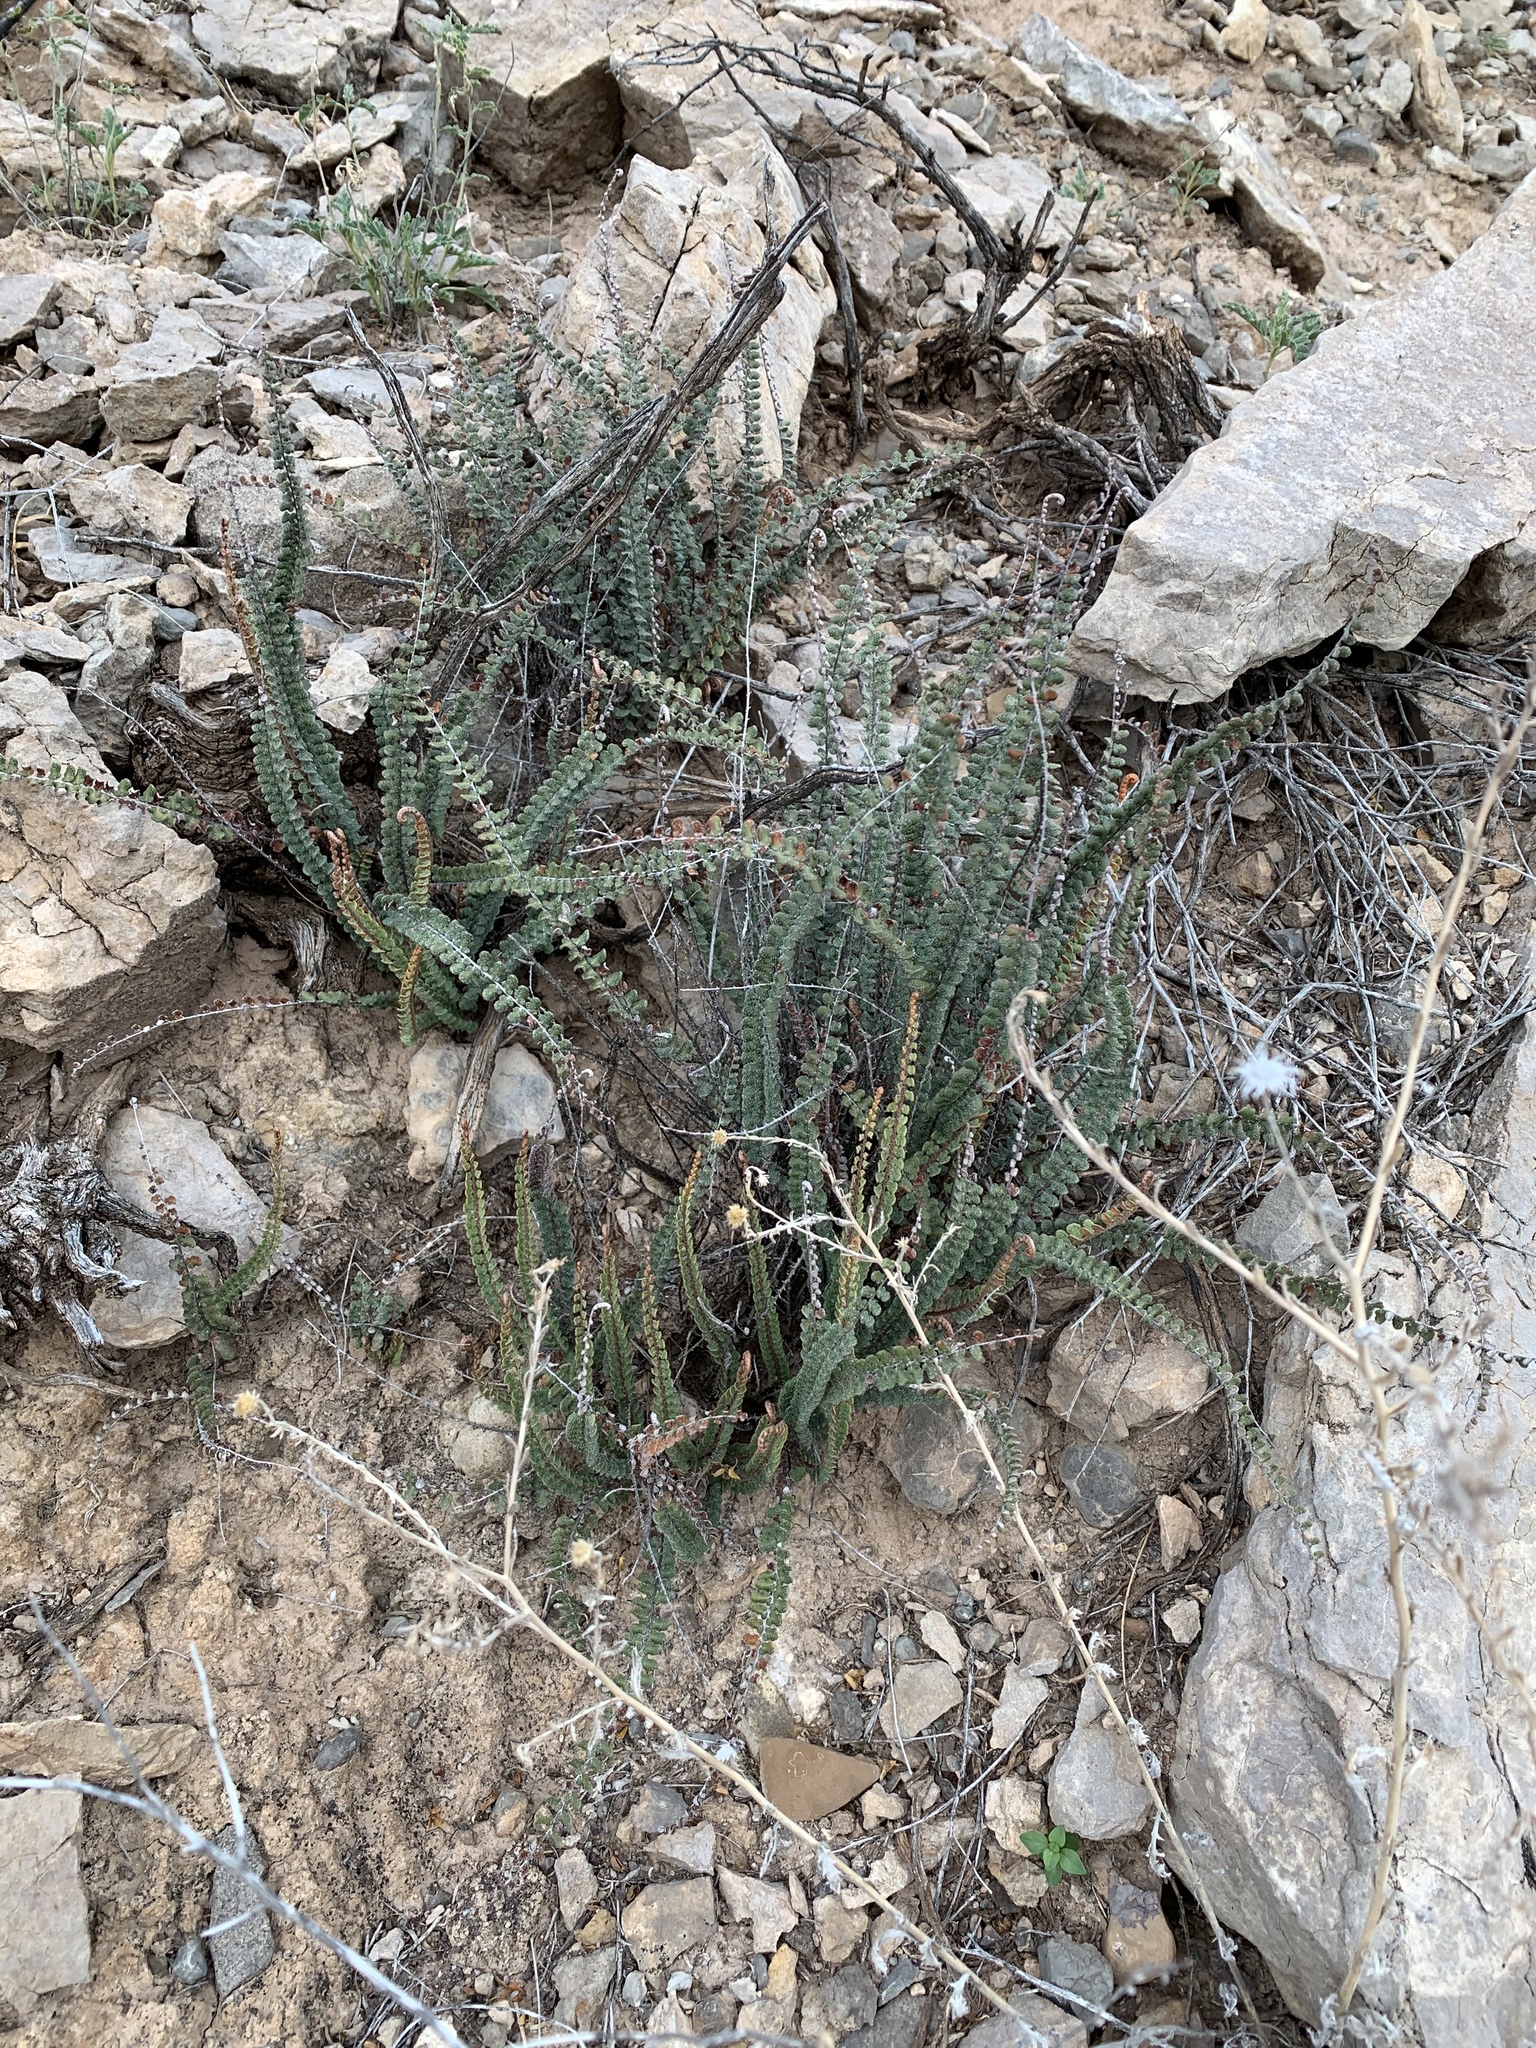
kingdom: Plantae
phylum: Tracheophyta
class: Polypodiopsida
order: Polypodiales
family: Pteridaceae
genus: Astrolepis
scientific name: Astrolepis cochisensis
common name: Scaly cloak fern
